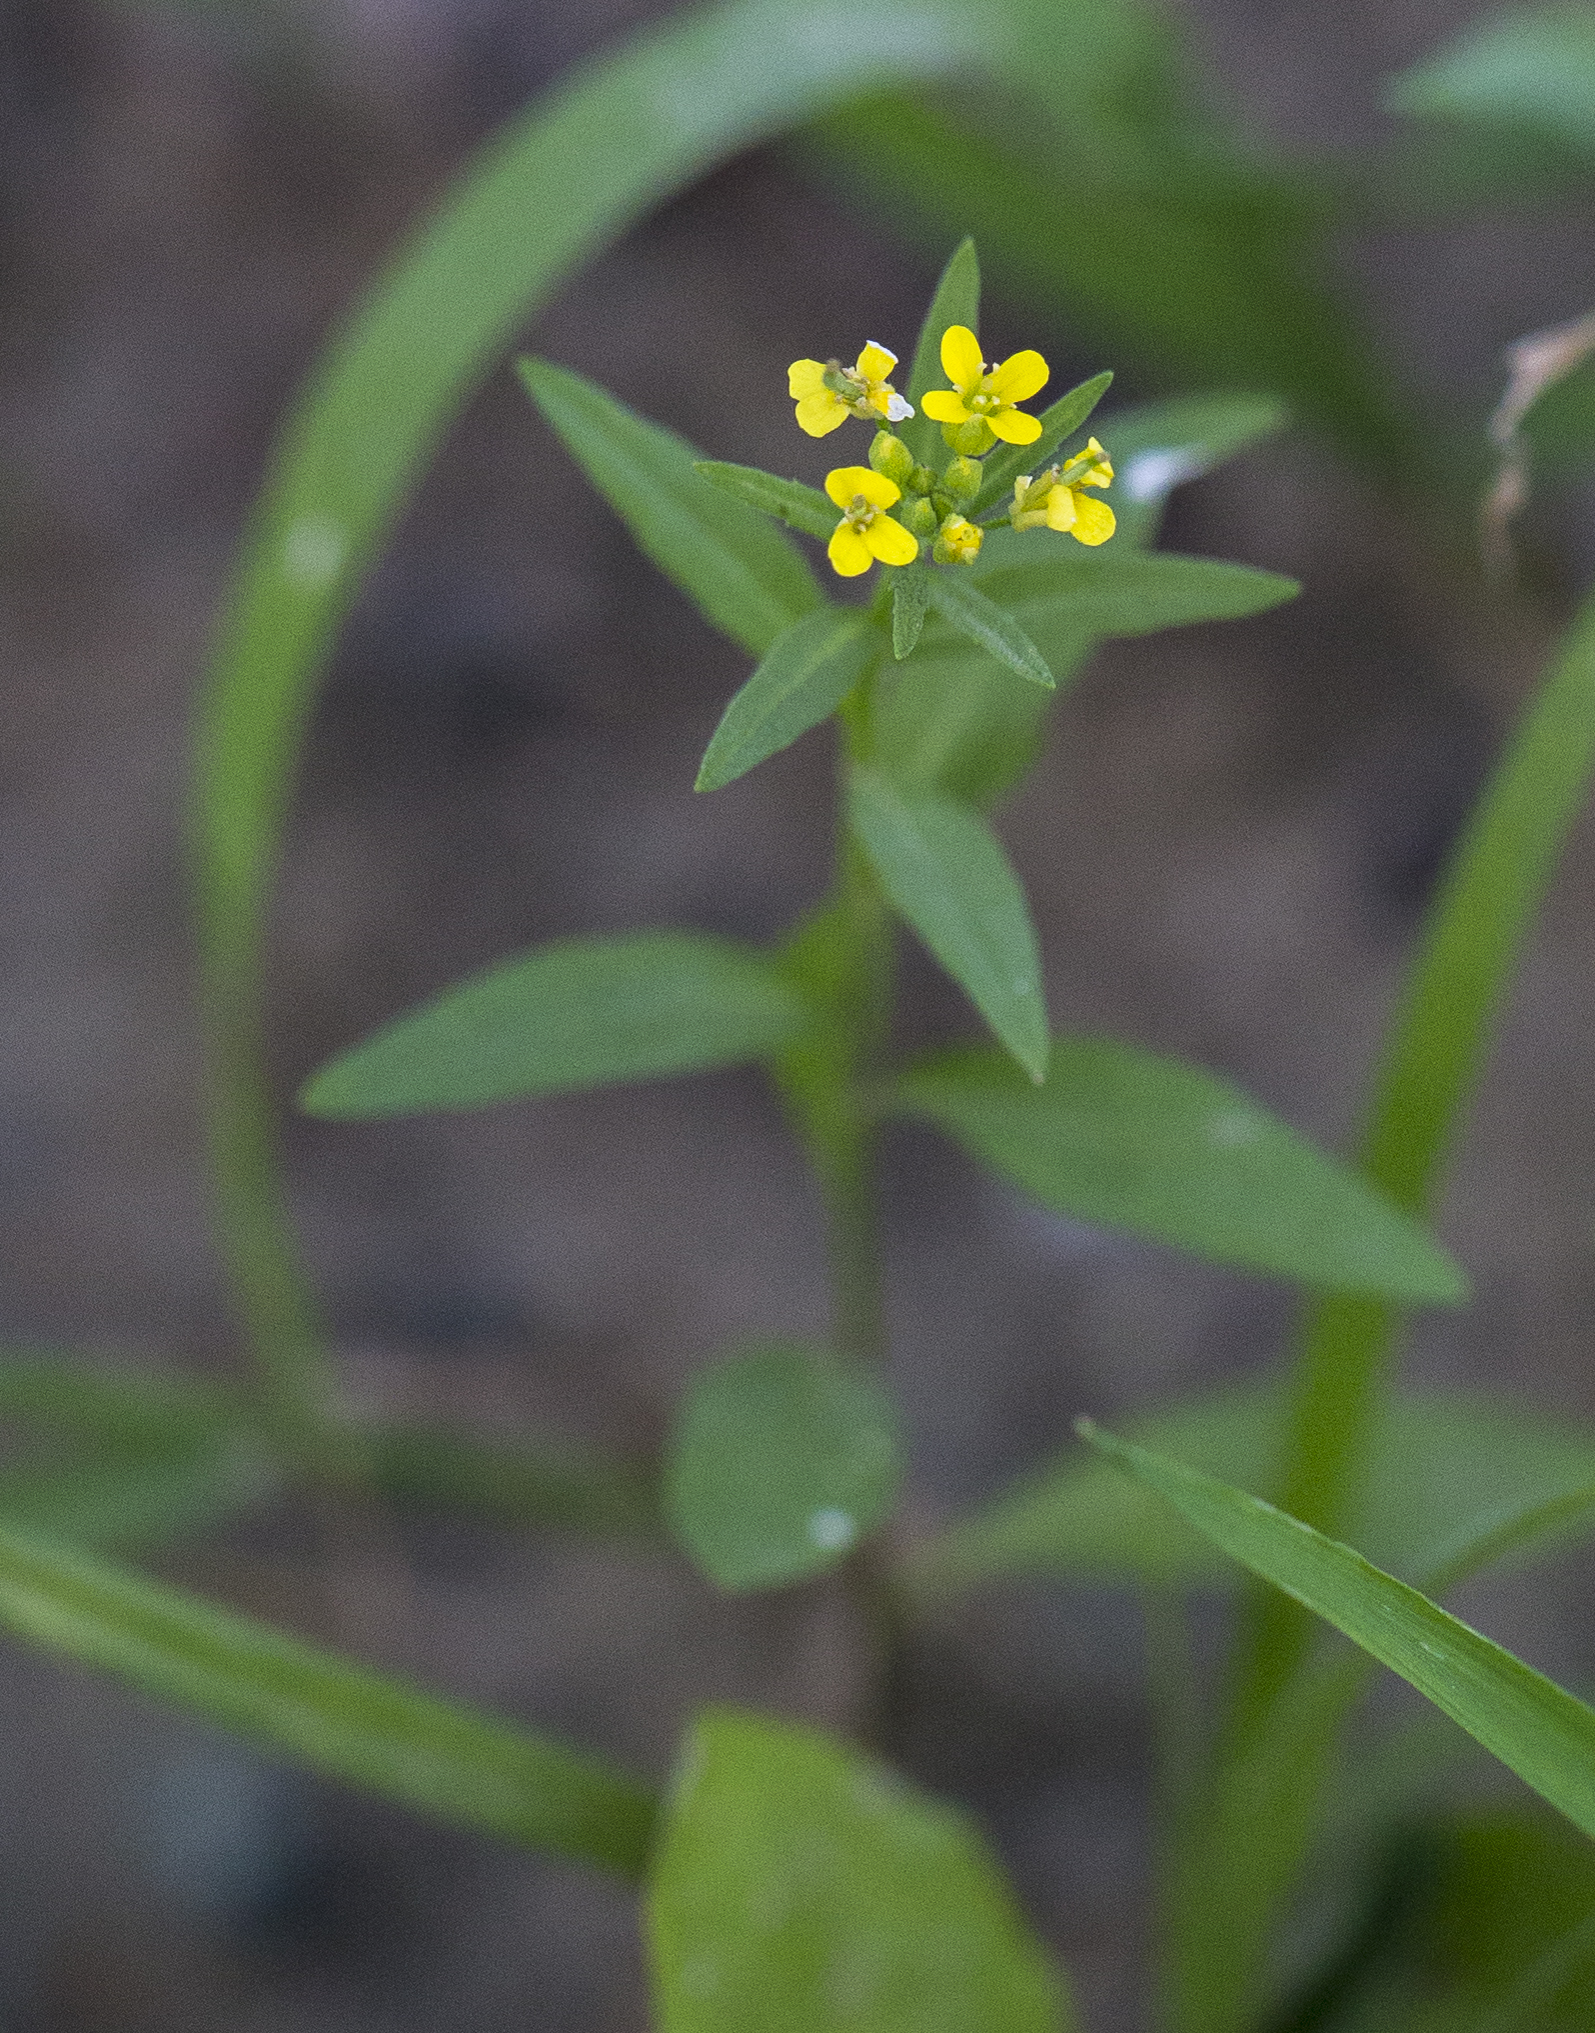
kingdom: Plantae
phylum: Tracheophyta
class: Magnoliopsida
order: Brassicales
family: Brassicaceae
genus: Erysimum
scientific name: Erysimum cheiranthoides
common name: Treacle mustard
